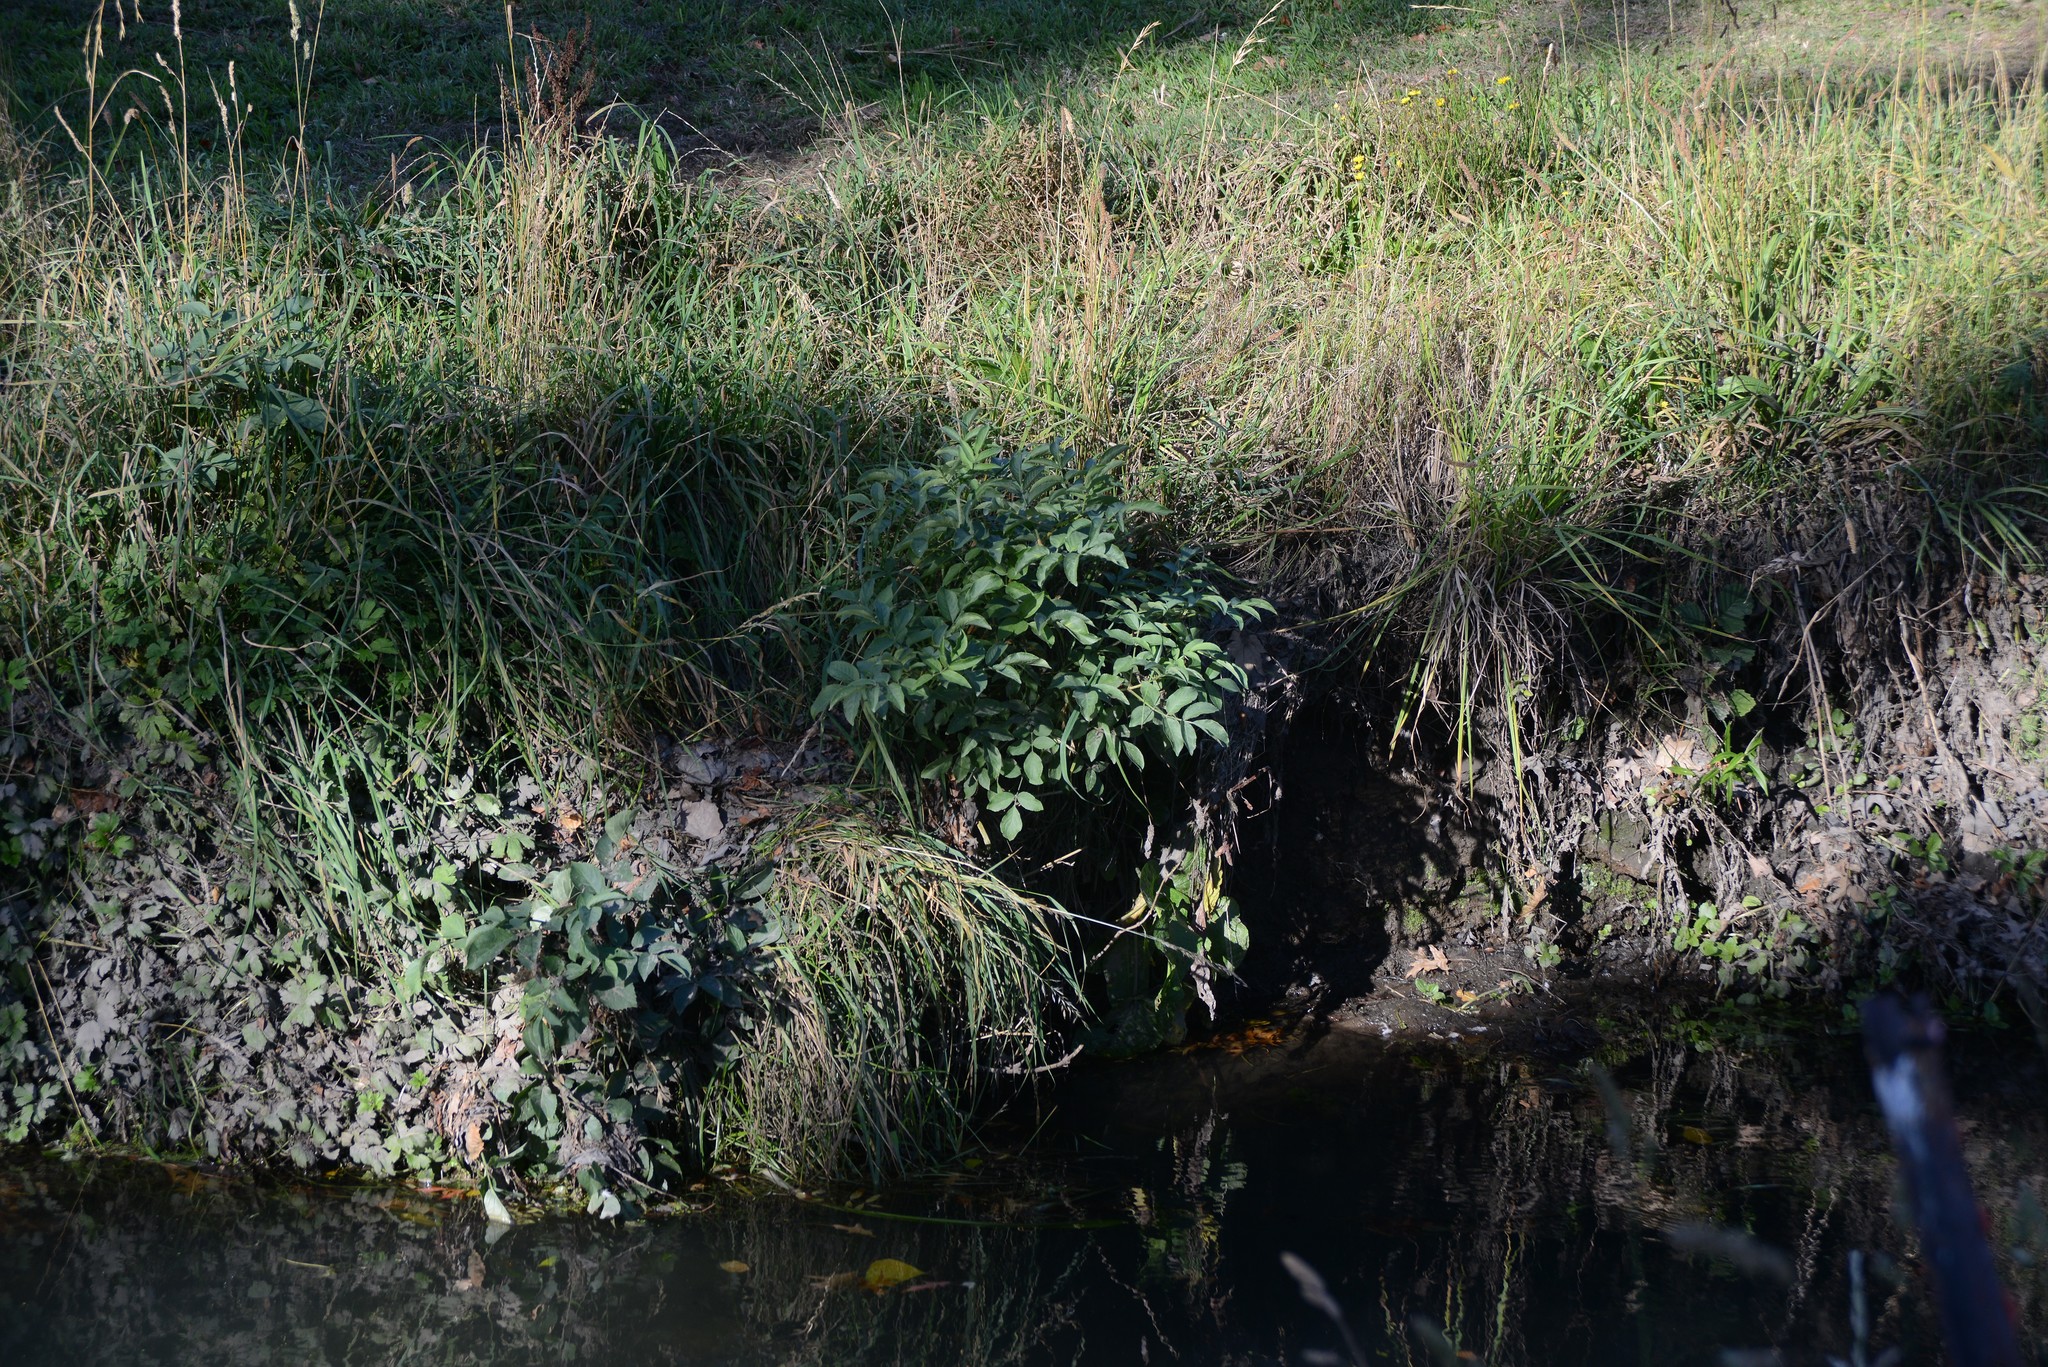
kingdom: Plantae
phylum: Tracheophyta
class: Magnoliopsida
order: Dipsacales
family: Viburnaceae
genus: Sambucus
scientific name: Sambucus nigra
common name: Elder
